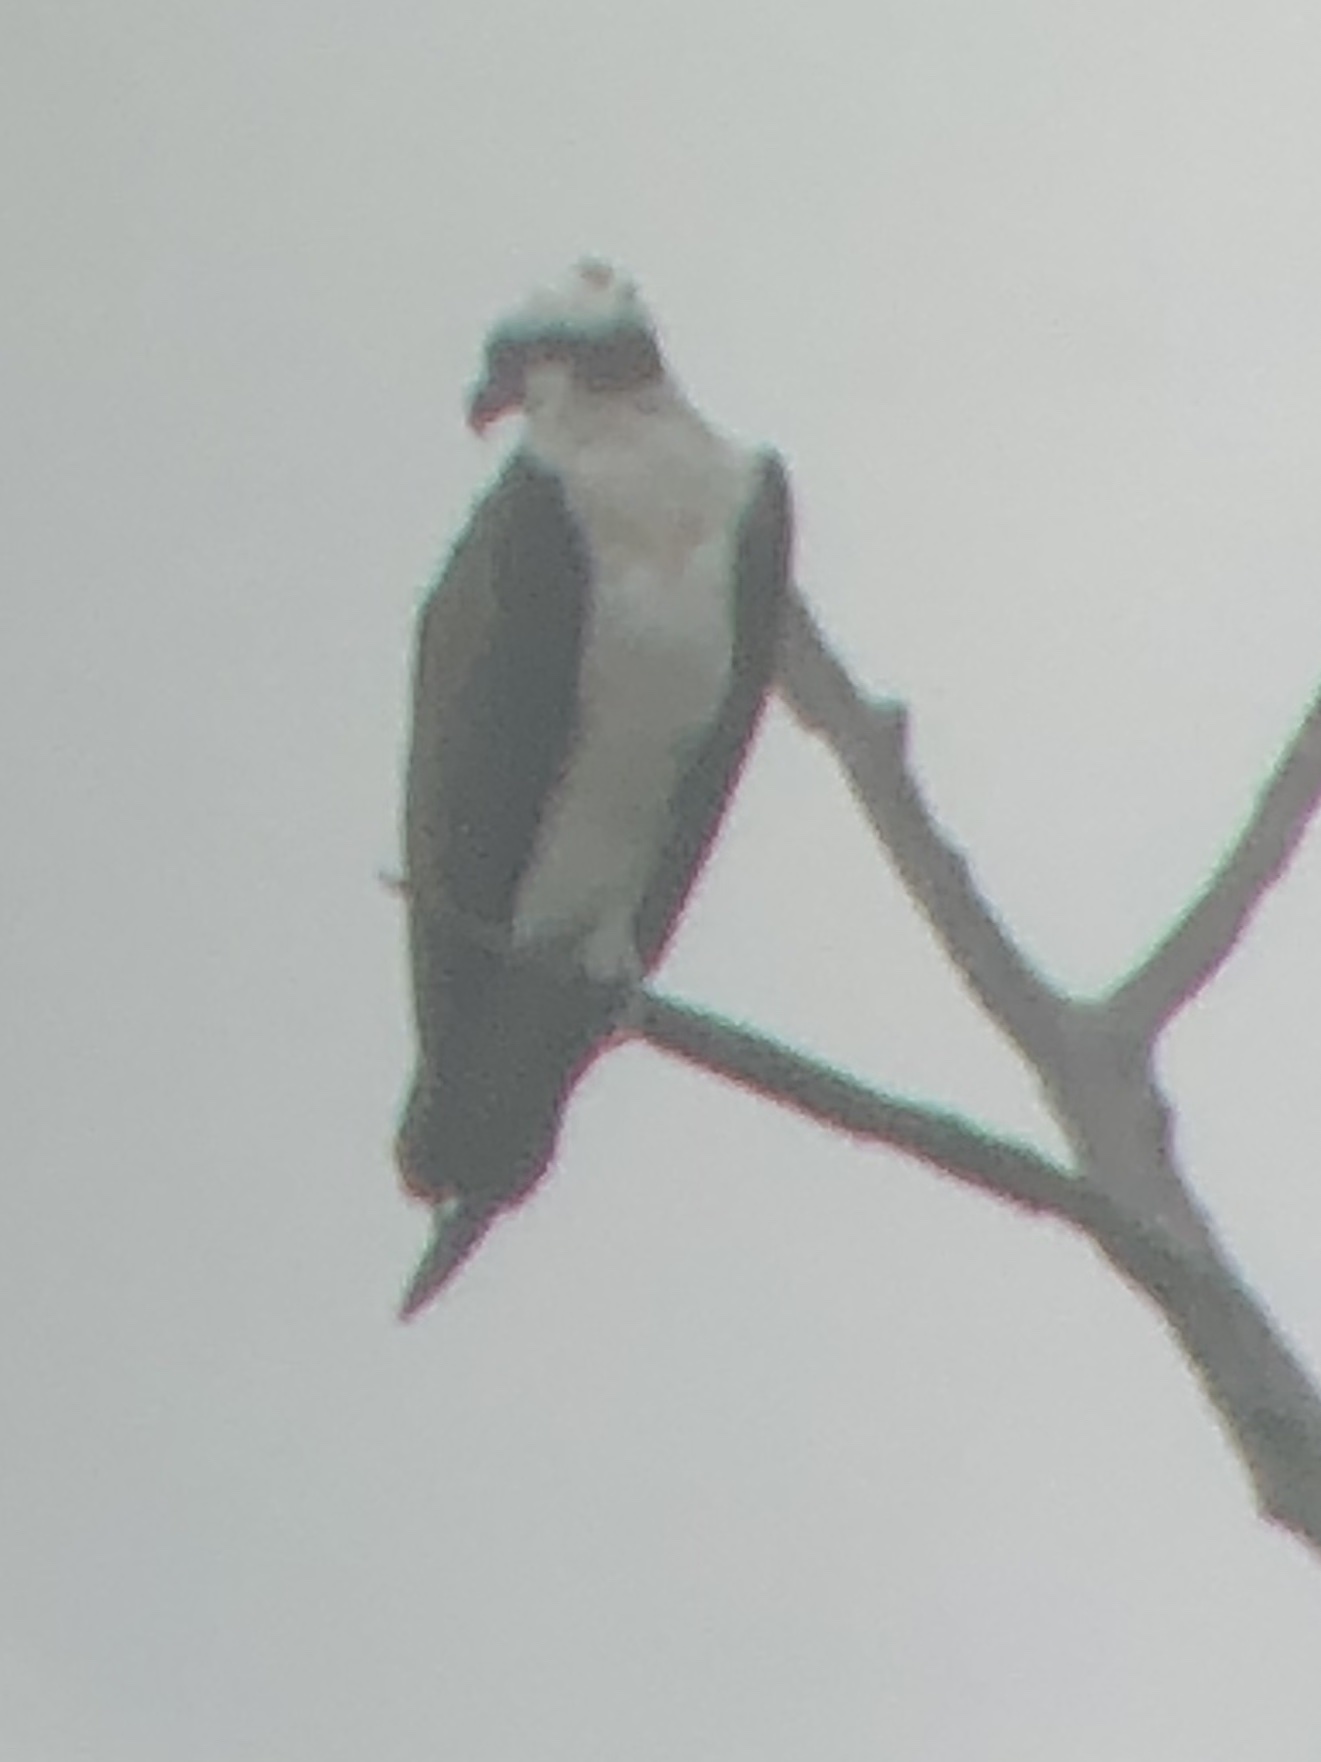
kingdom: Animalia
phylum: Chordata
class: Aves
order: Accipitriformes
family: Pandionidae
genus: Pandion
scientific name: Pandion haliaetus
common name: Osprey
